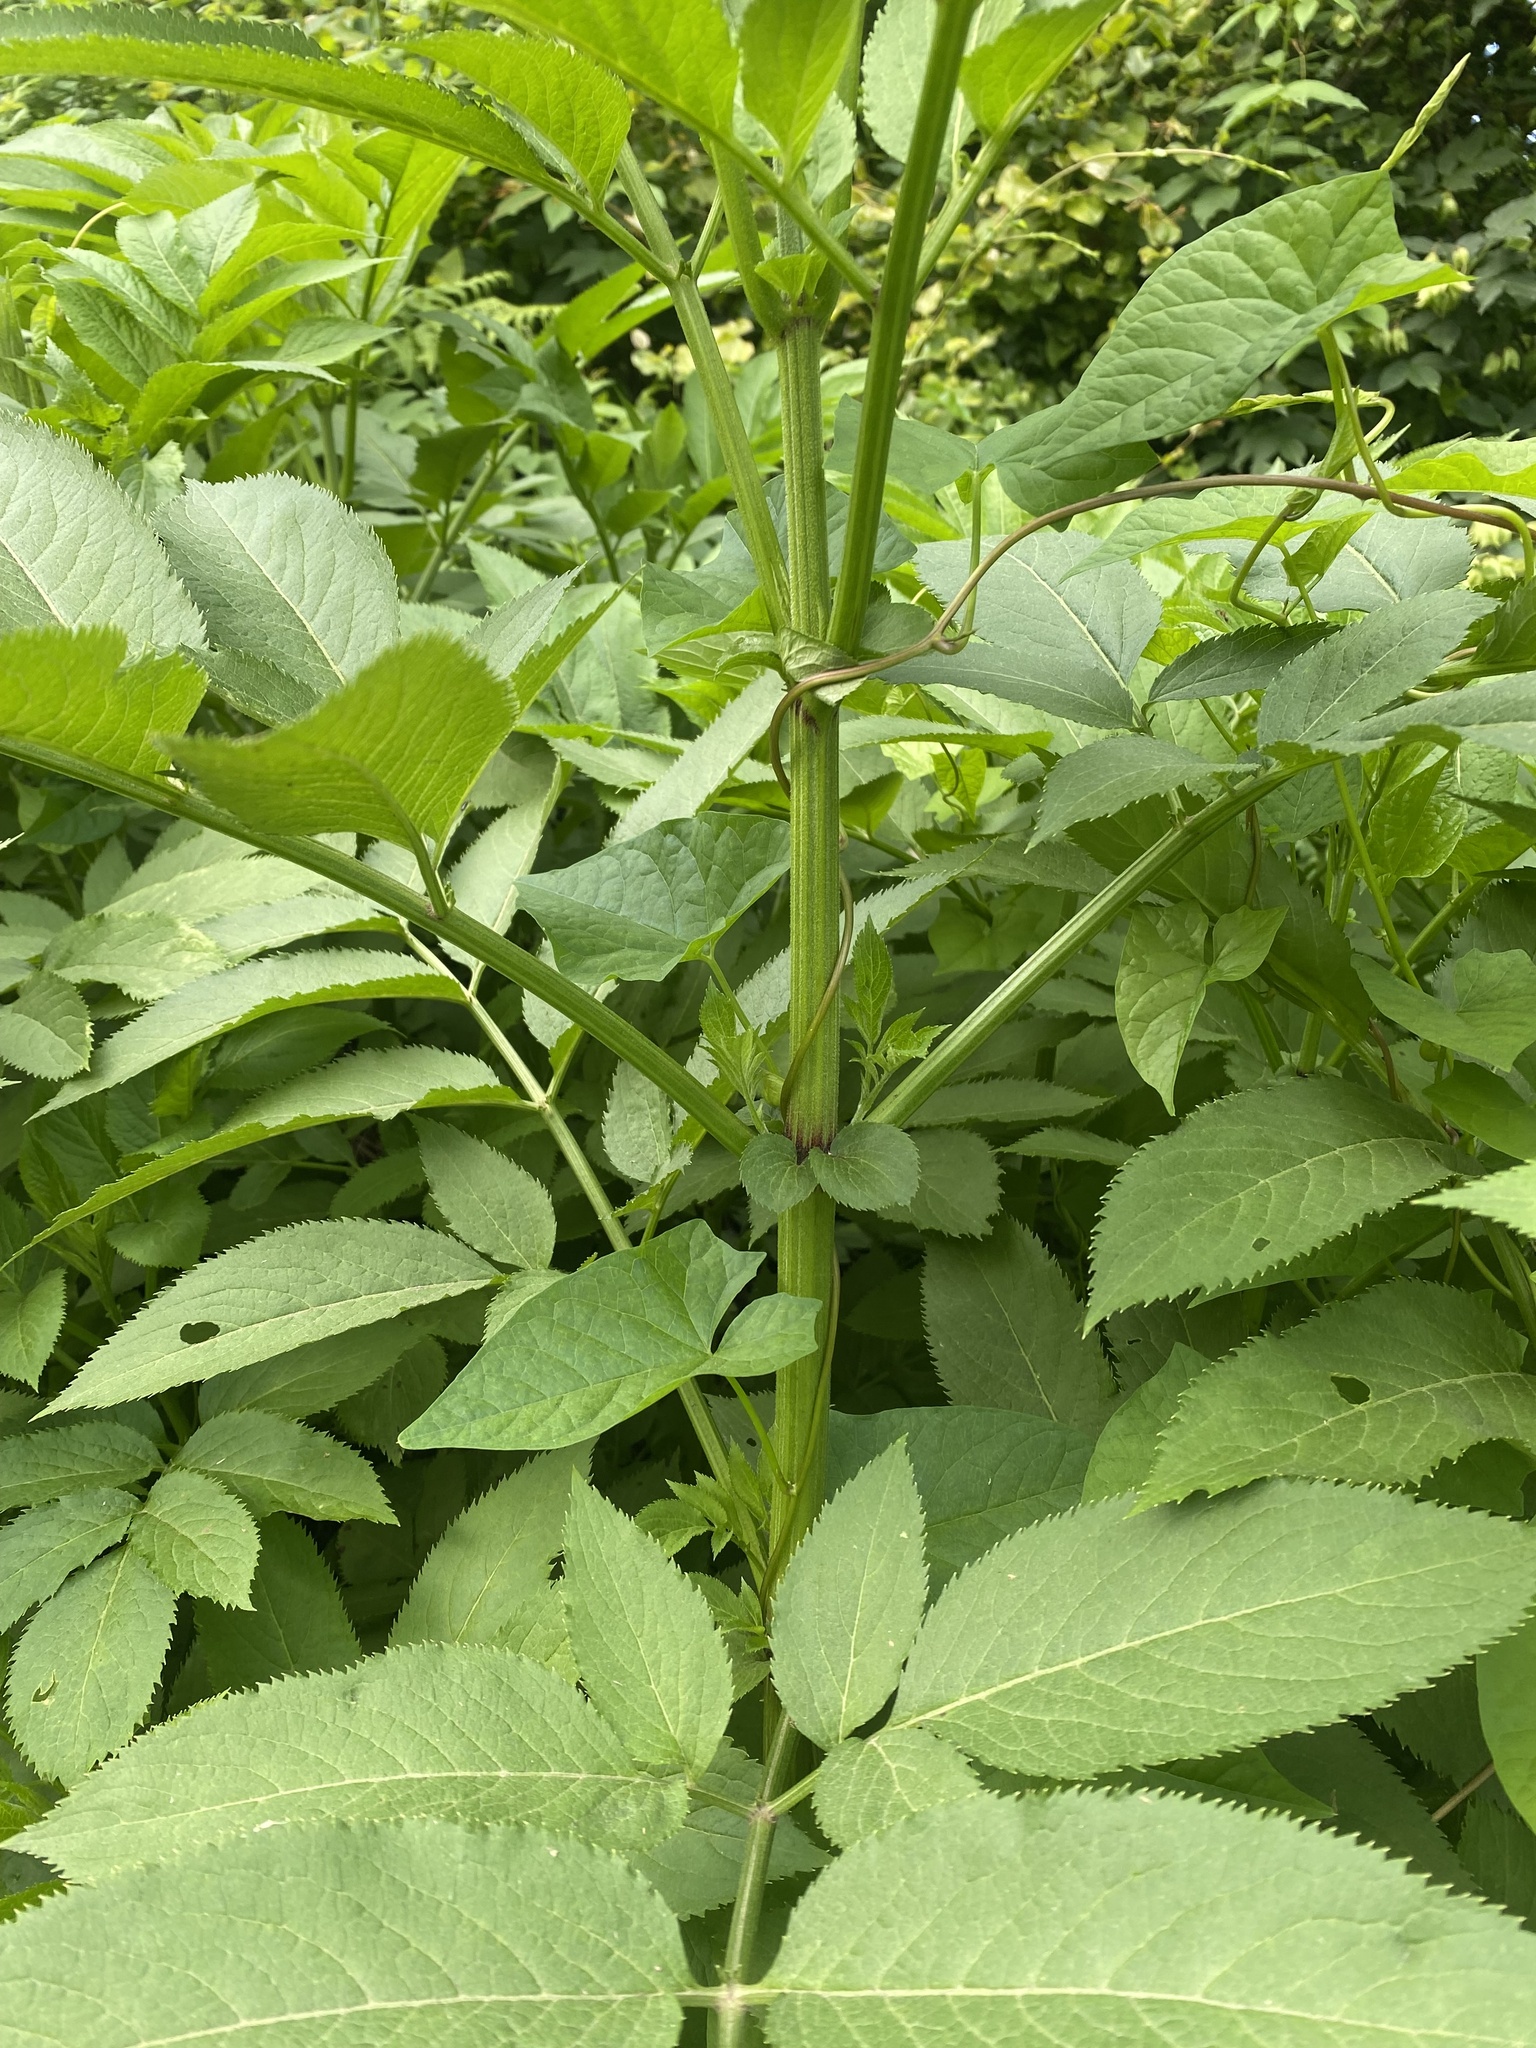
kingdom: Plantae
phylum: Tracheophyta
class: Magnoliopsida
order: Dipsacales
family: Viburnaceae
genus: Sambucus
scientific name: Sambucus ebulus
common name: Dwarf elder
